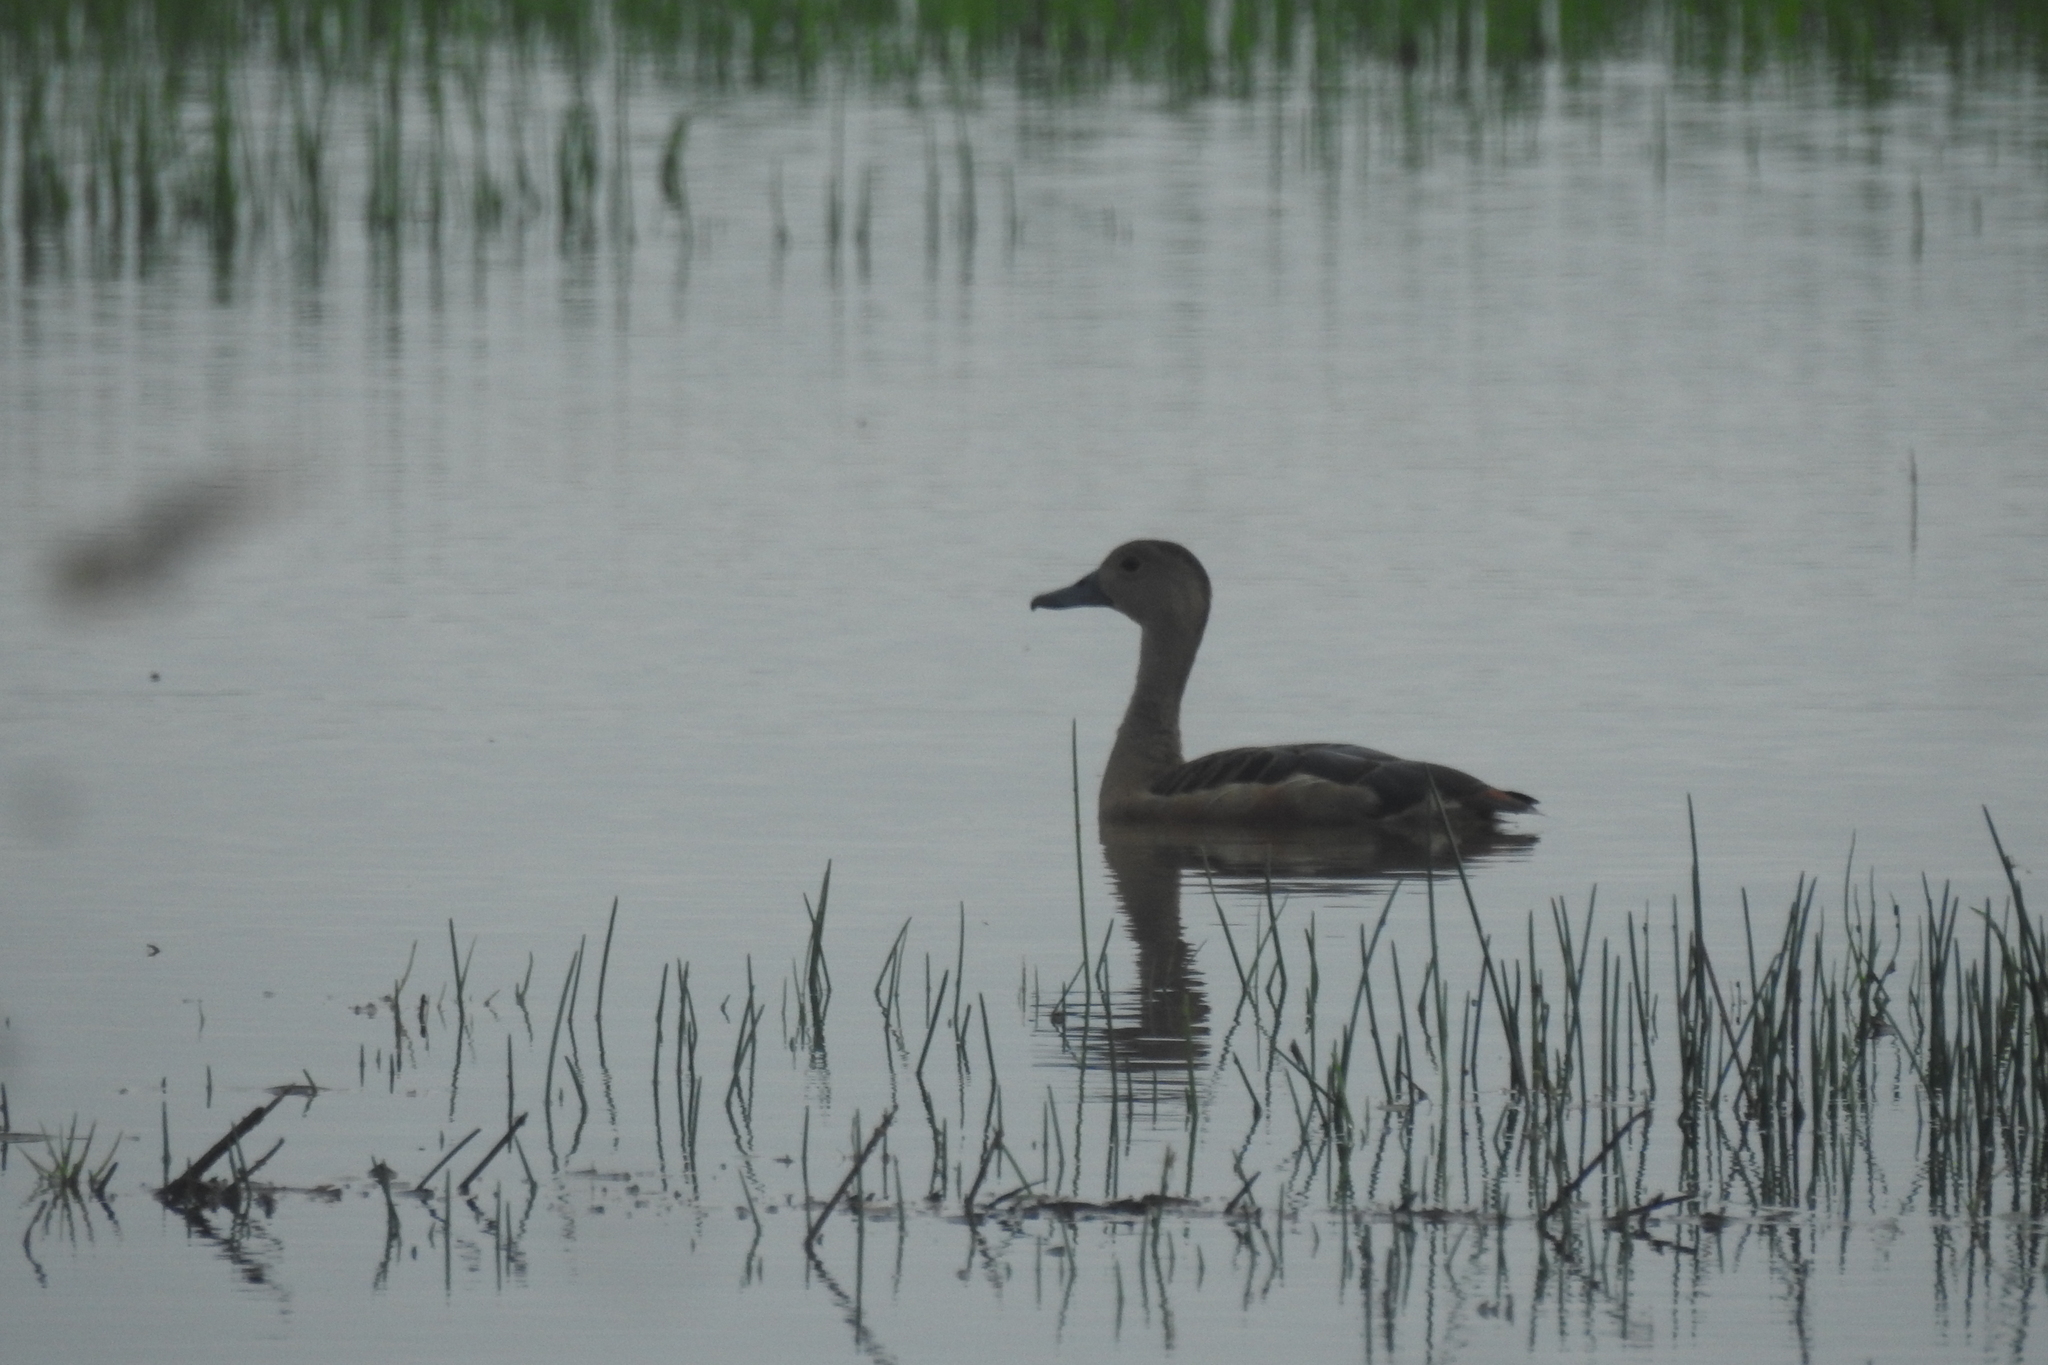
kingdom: Animalia
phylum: Chordata
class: Aves
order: Anseriformes
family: Anatidae
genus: Dendrocygna
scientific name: Dendrocygna javanica
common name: Lesser whistling-duck
